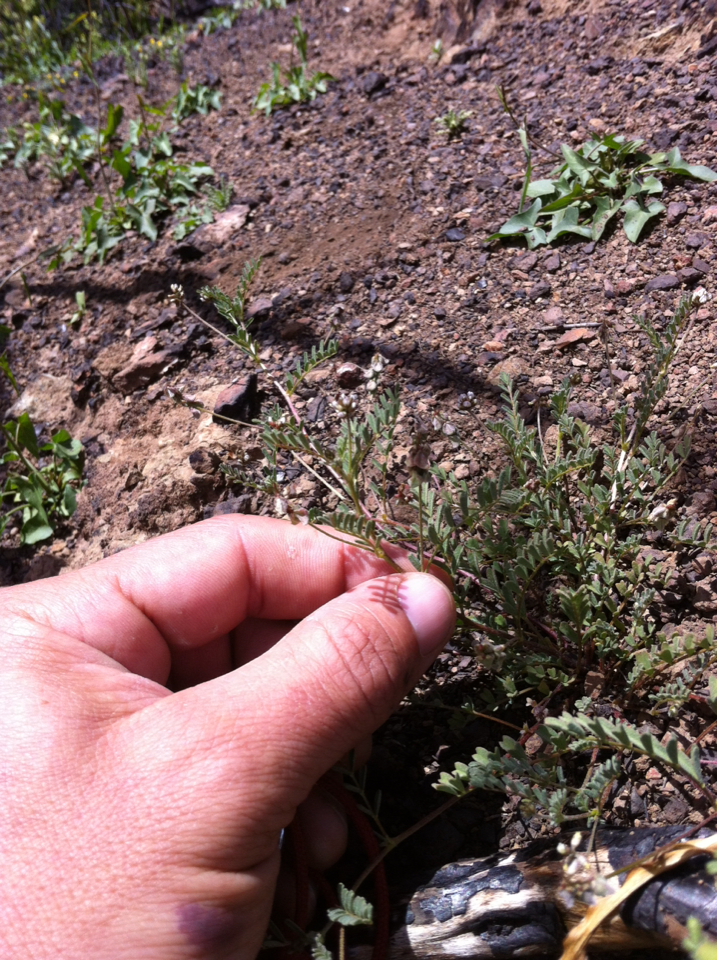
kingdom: Plantae
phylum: Tracheophyta
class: Magnoliopsida
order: Fabales
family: Fabaceae
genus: Astragalus
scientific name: Astragalus gambelianus
